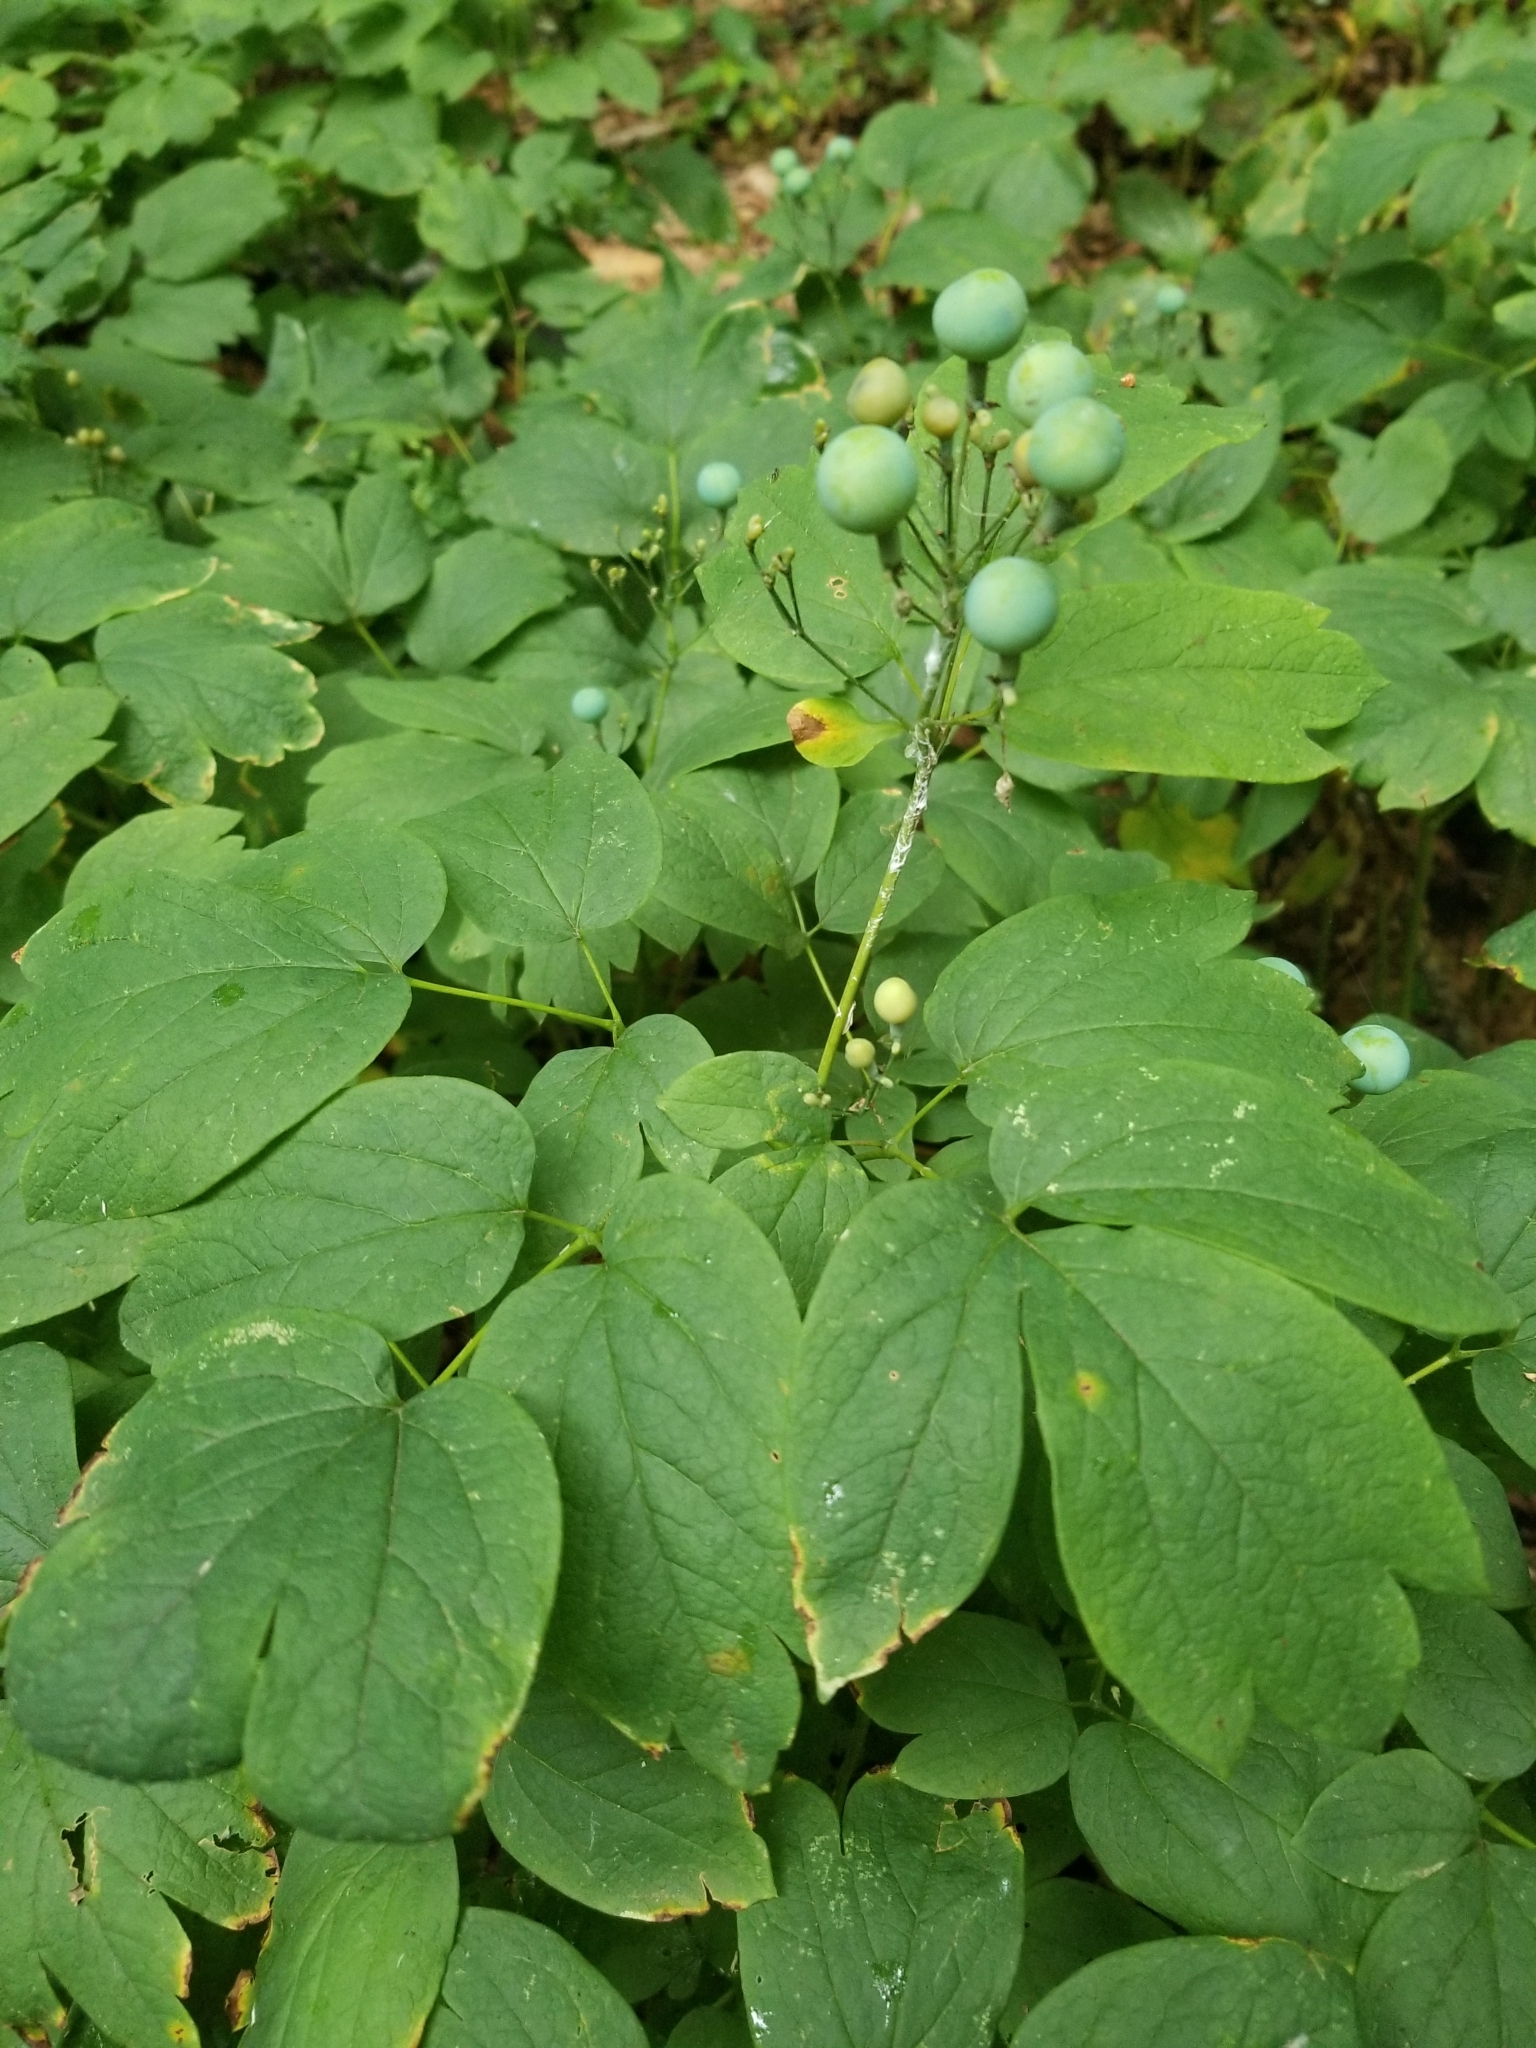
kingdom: Plantae
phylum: Tracheophyta
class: Magnoliopsida
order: Ranunculales
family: Berberidaceae
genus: Caulophyllum
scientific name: Caulophyllum thalictroides
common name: Blue cohosh
